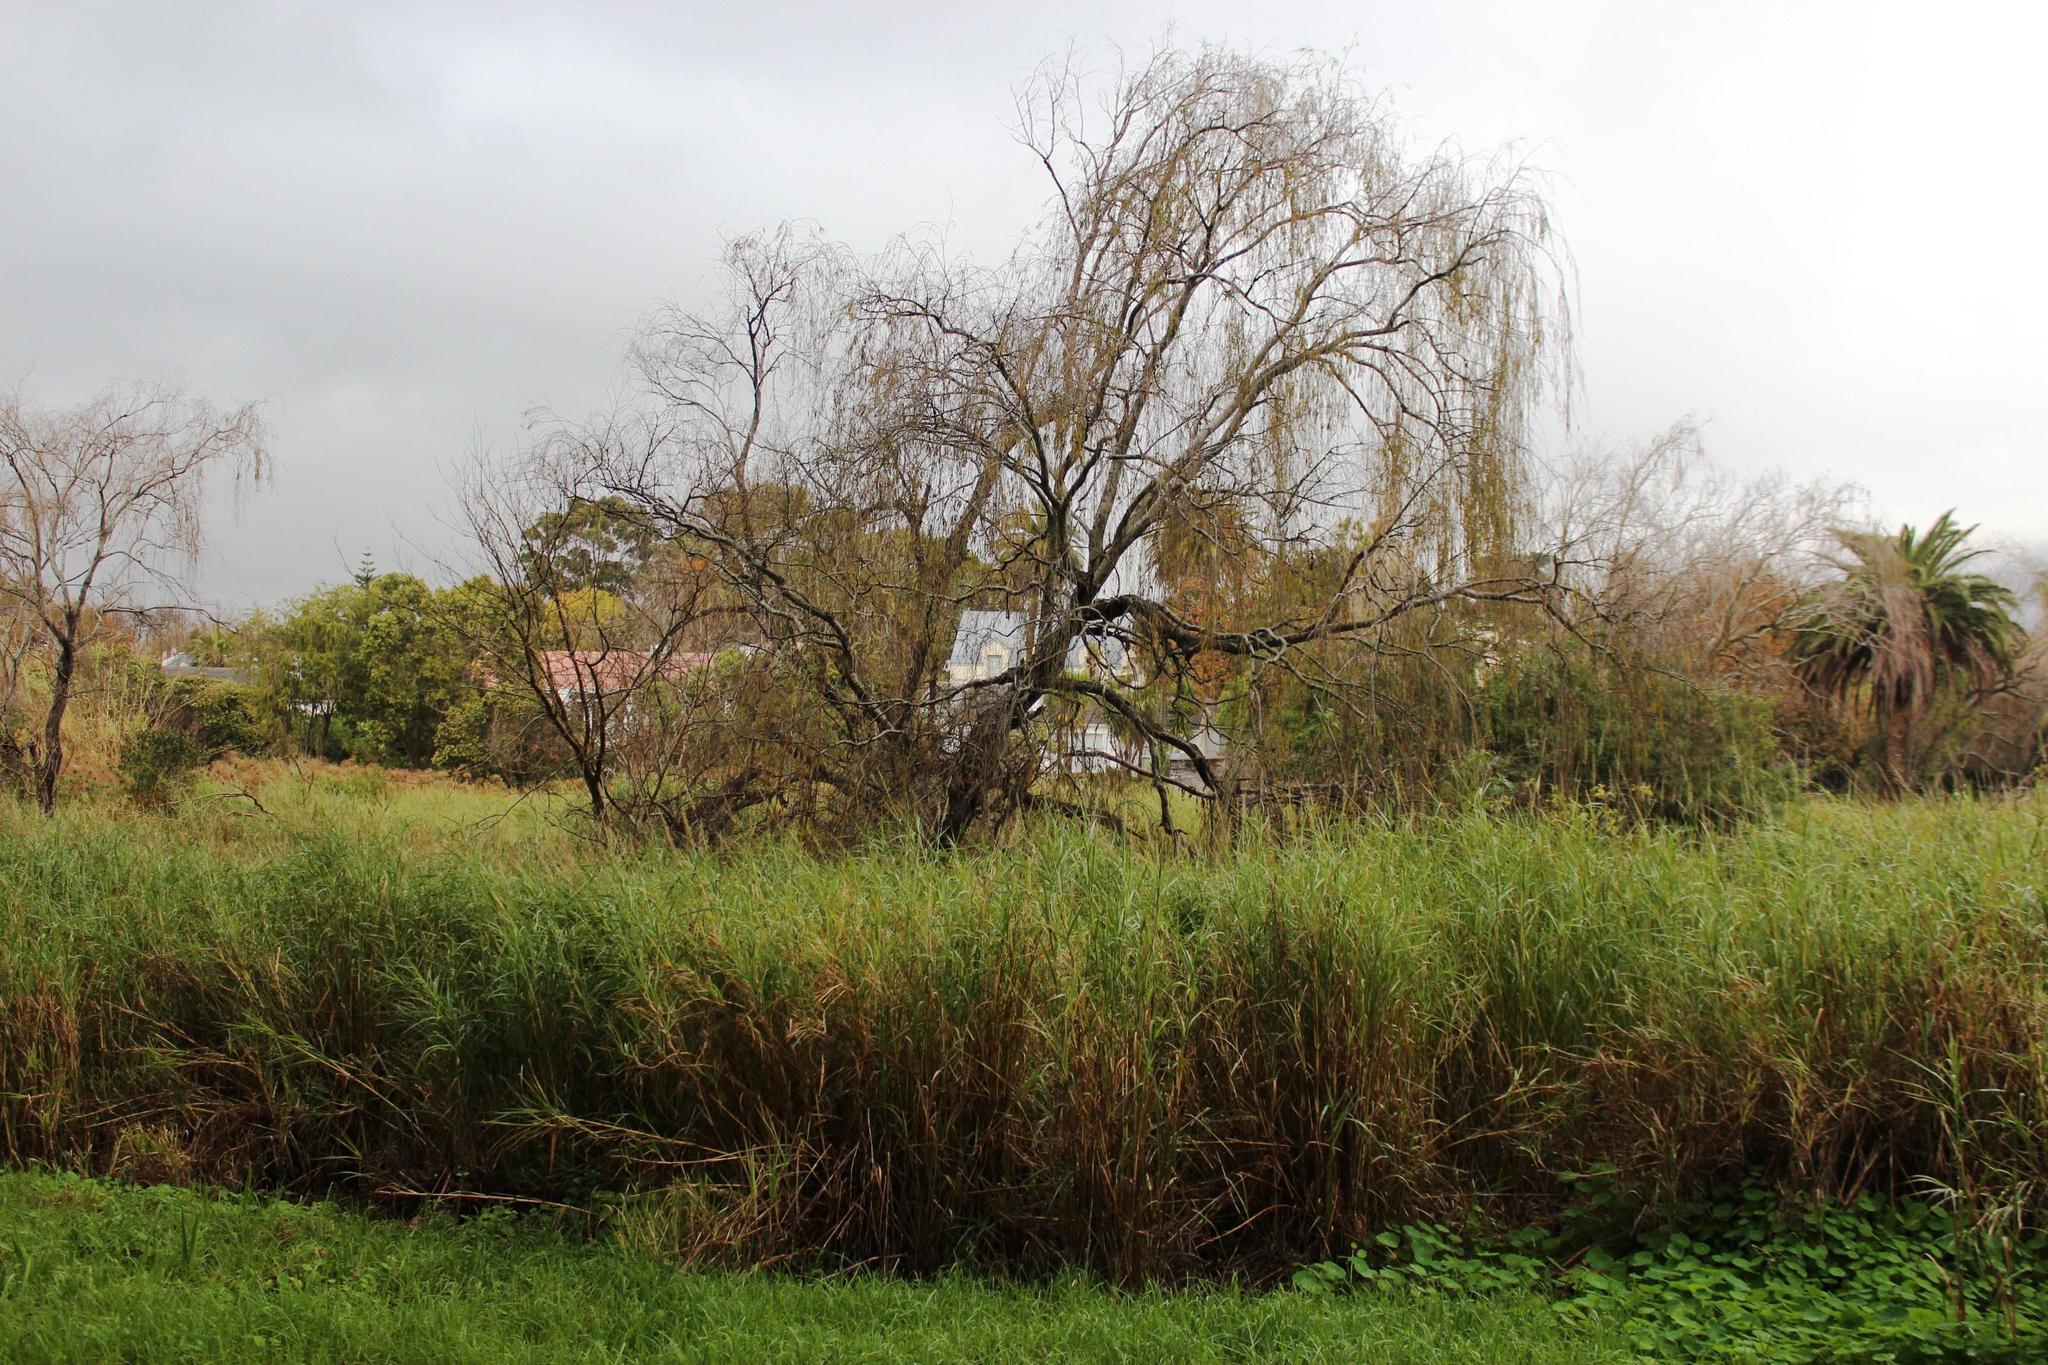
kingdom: Plantae
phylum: Tracheophyta
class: Magnoliopsida
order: Malpighiales
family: Salicaceae
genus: Salix
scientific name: Salix babylonica
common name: Weeping willow
